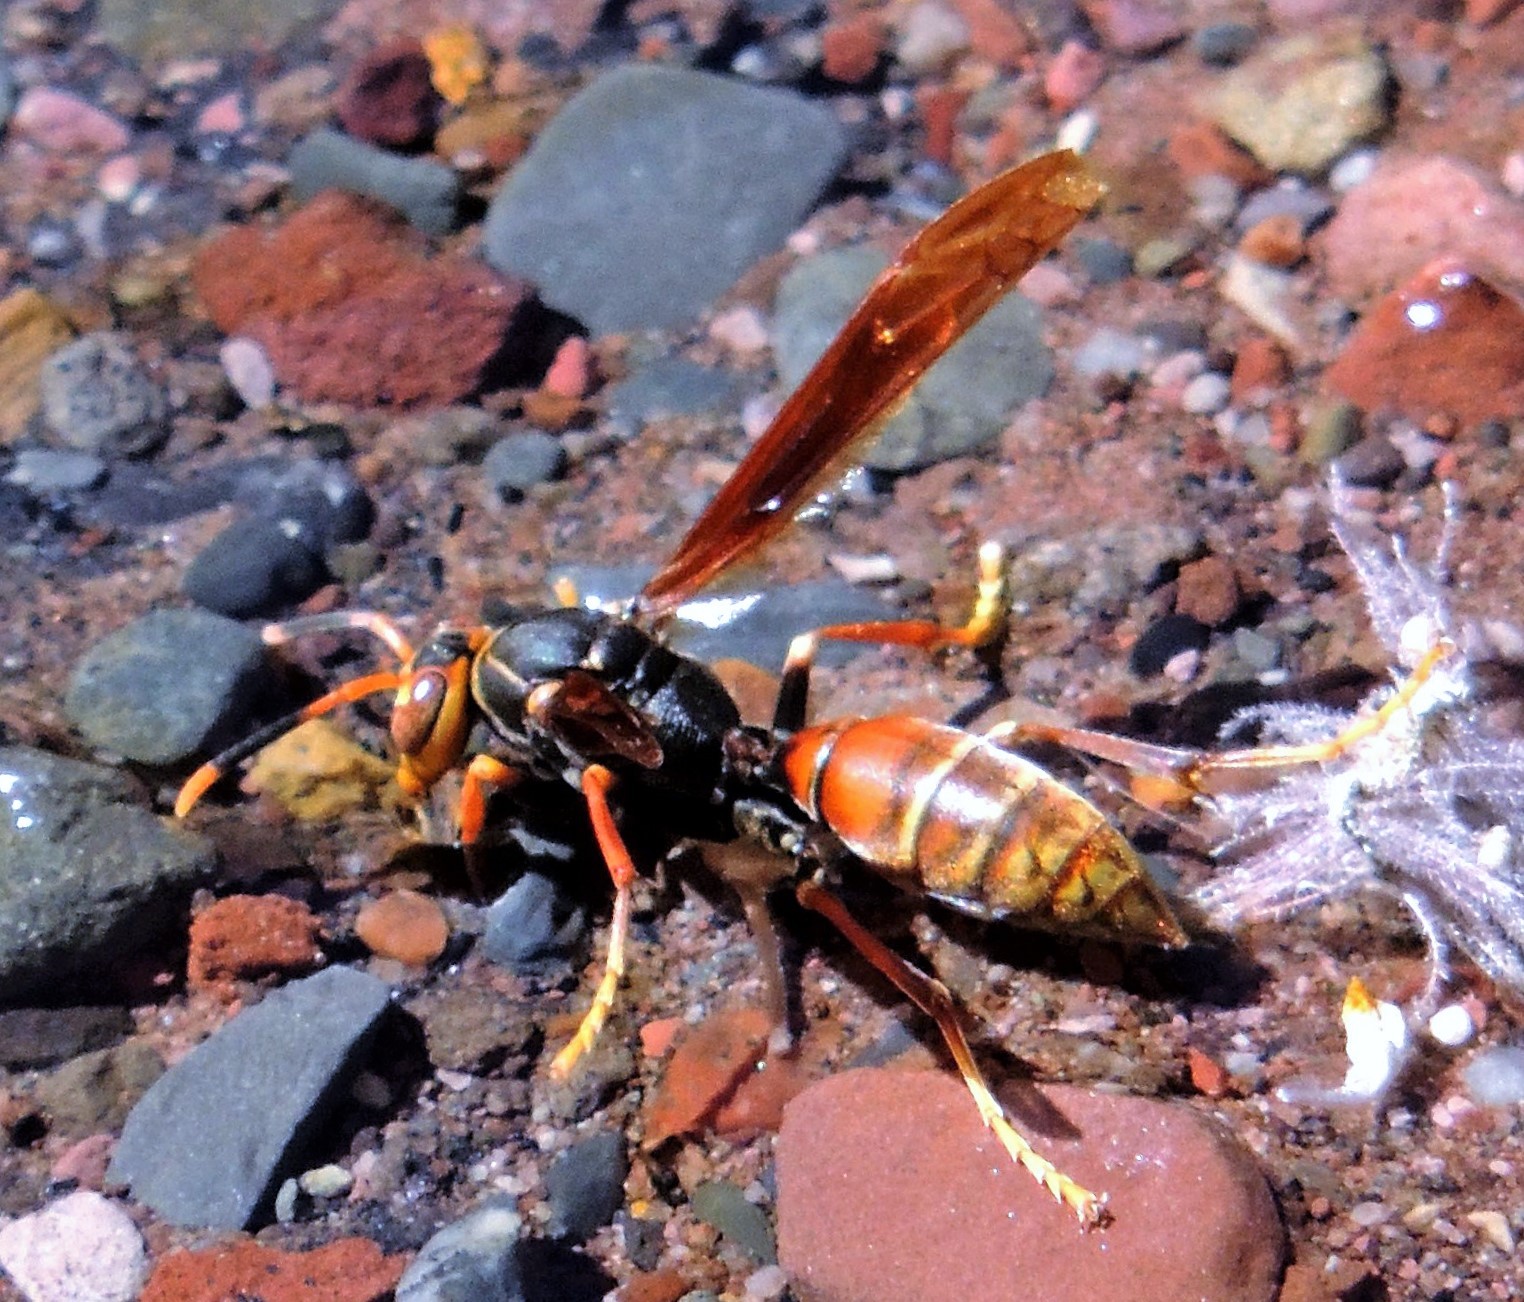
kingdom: Animalia
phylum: Arthropoda
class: Insecta
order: Hymenoptera
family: Eumenidae
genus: Polistes
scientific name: Polistes buyssoni
